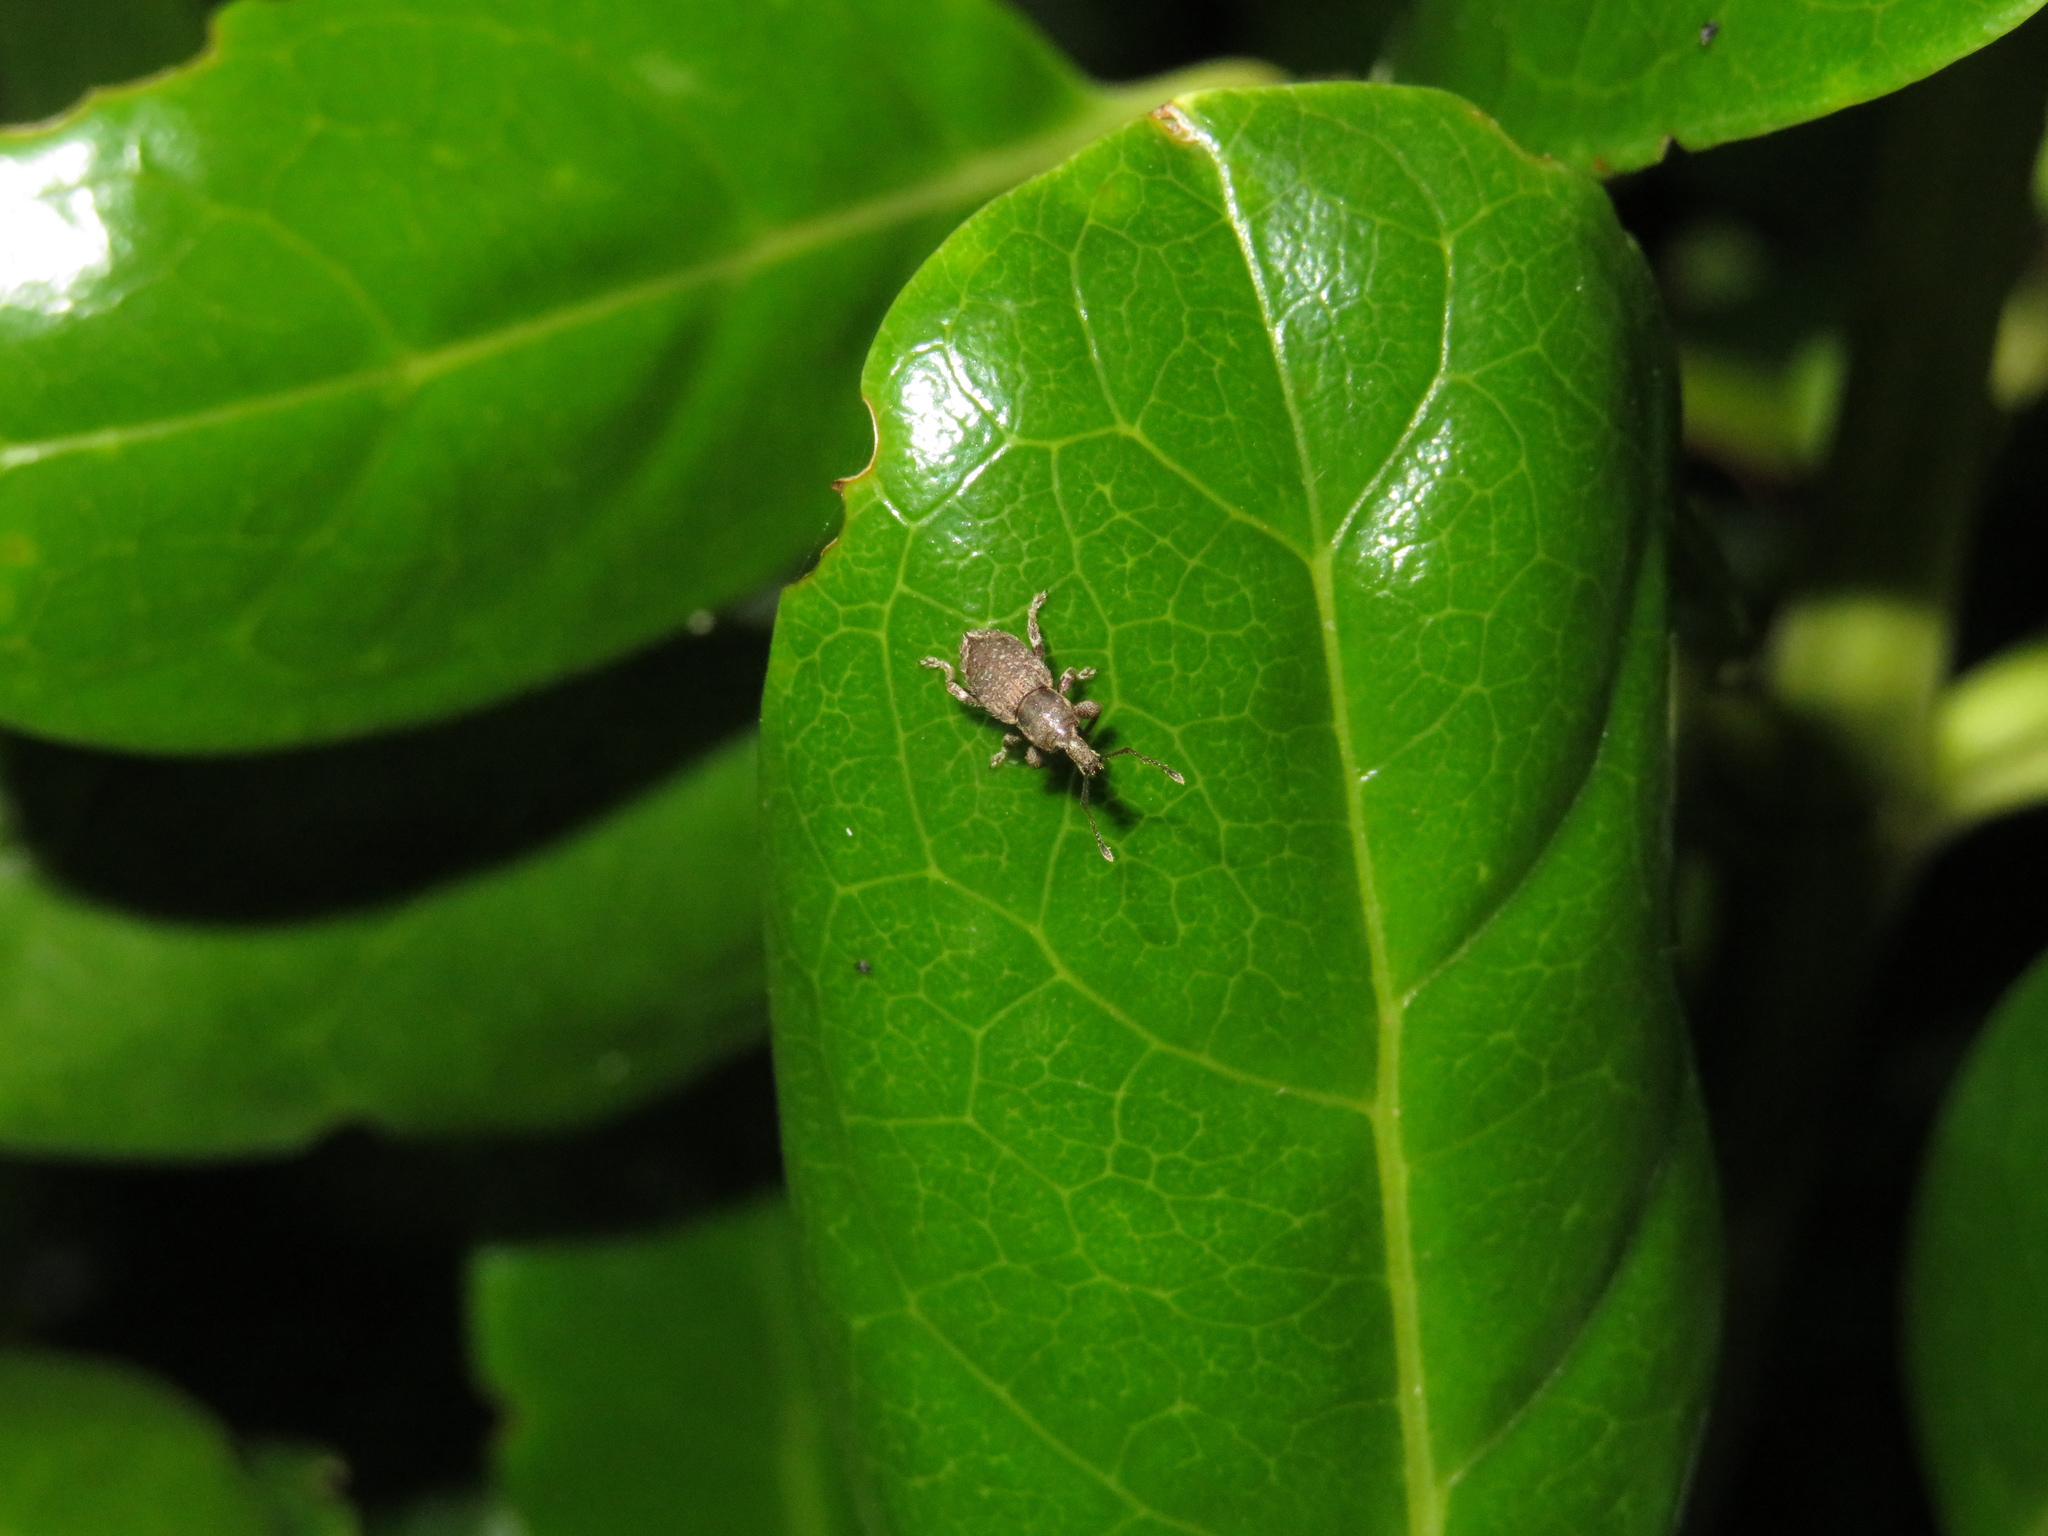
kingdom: Animalia
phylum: Arthropoda
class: Insecta
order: Coleoptera
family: Curculionidae
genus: Chalepistes
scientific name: Chalepistes compressus
